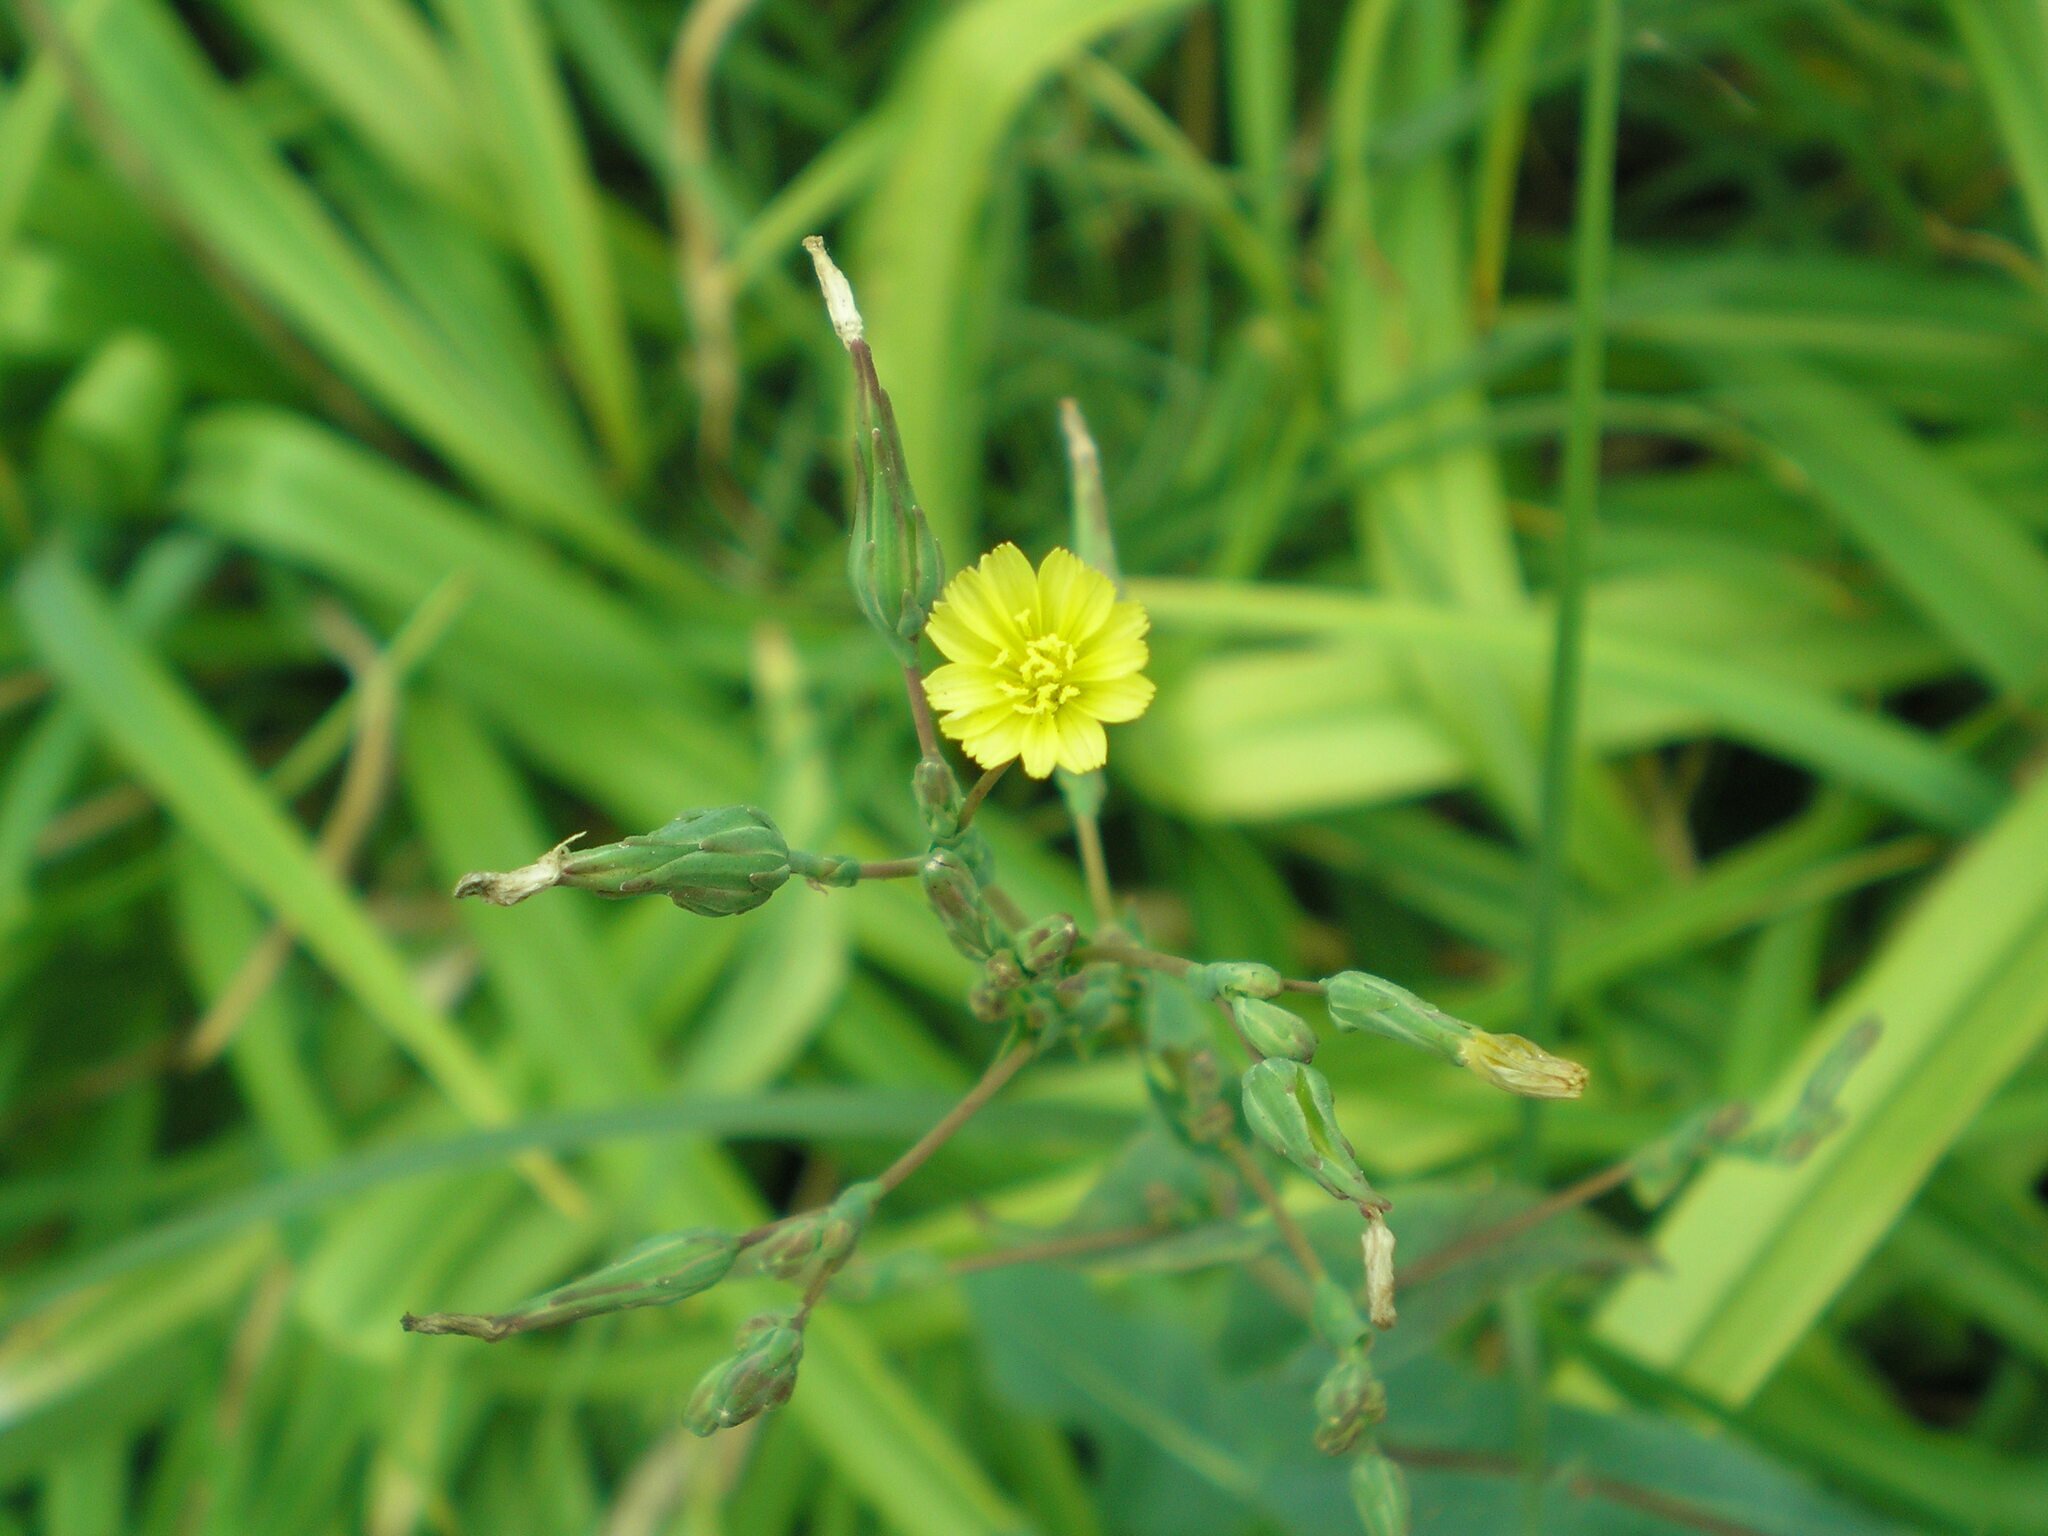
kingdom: Plantae
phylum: Tracheophyta
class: Magnoliopsida
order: Asterales
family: Asteraceae
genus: Lactuca
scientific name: Lactuca serriola
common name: Prickly lettuce
